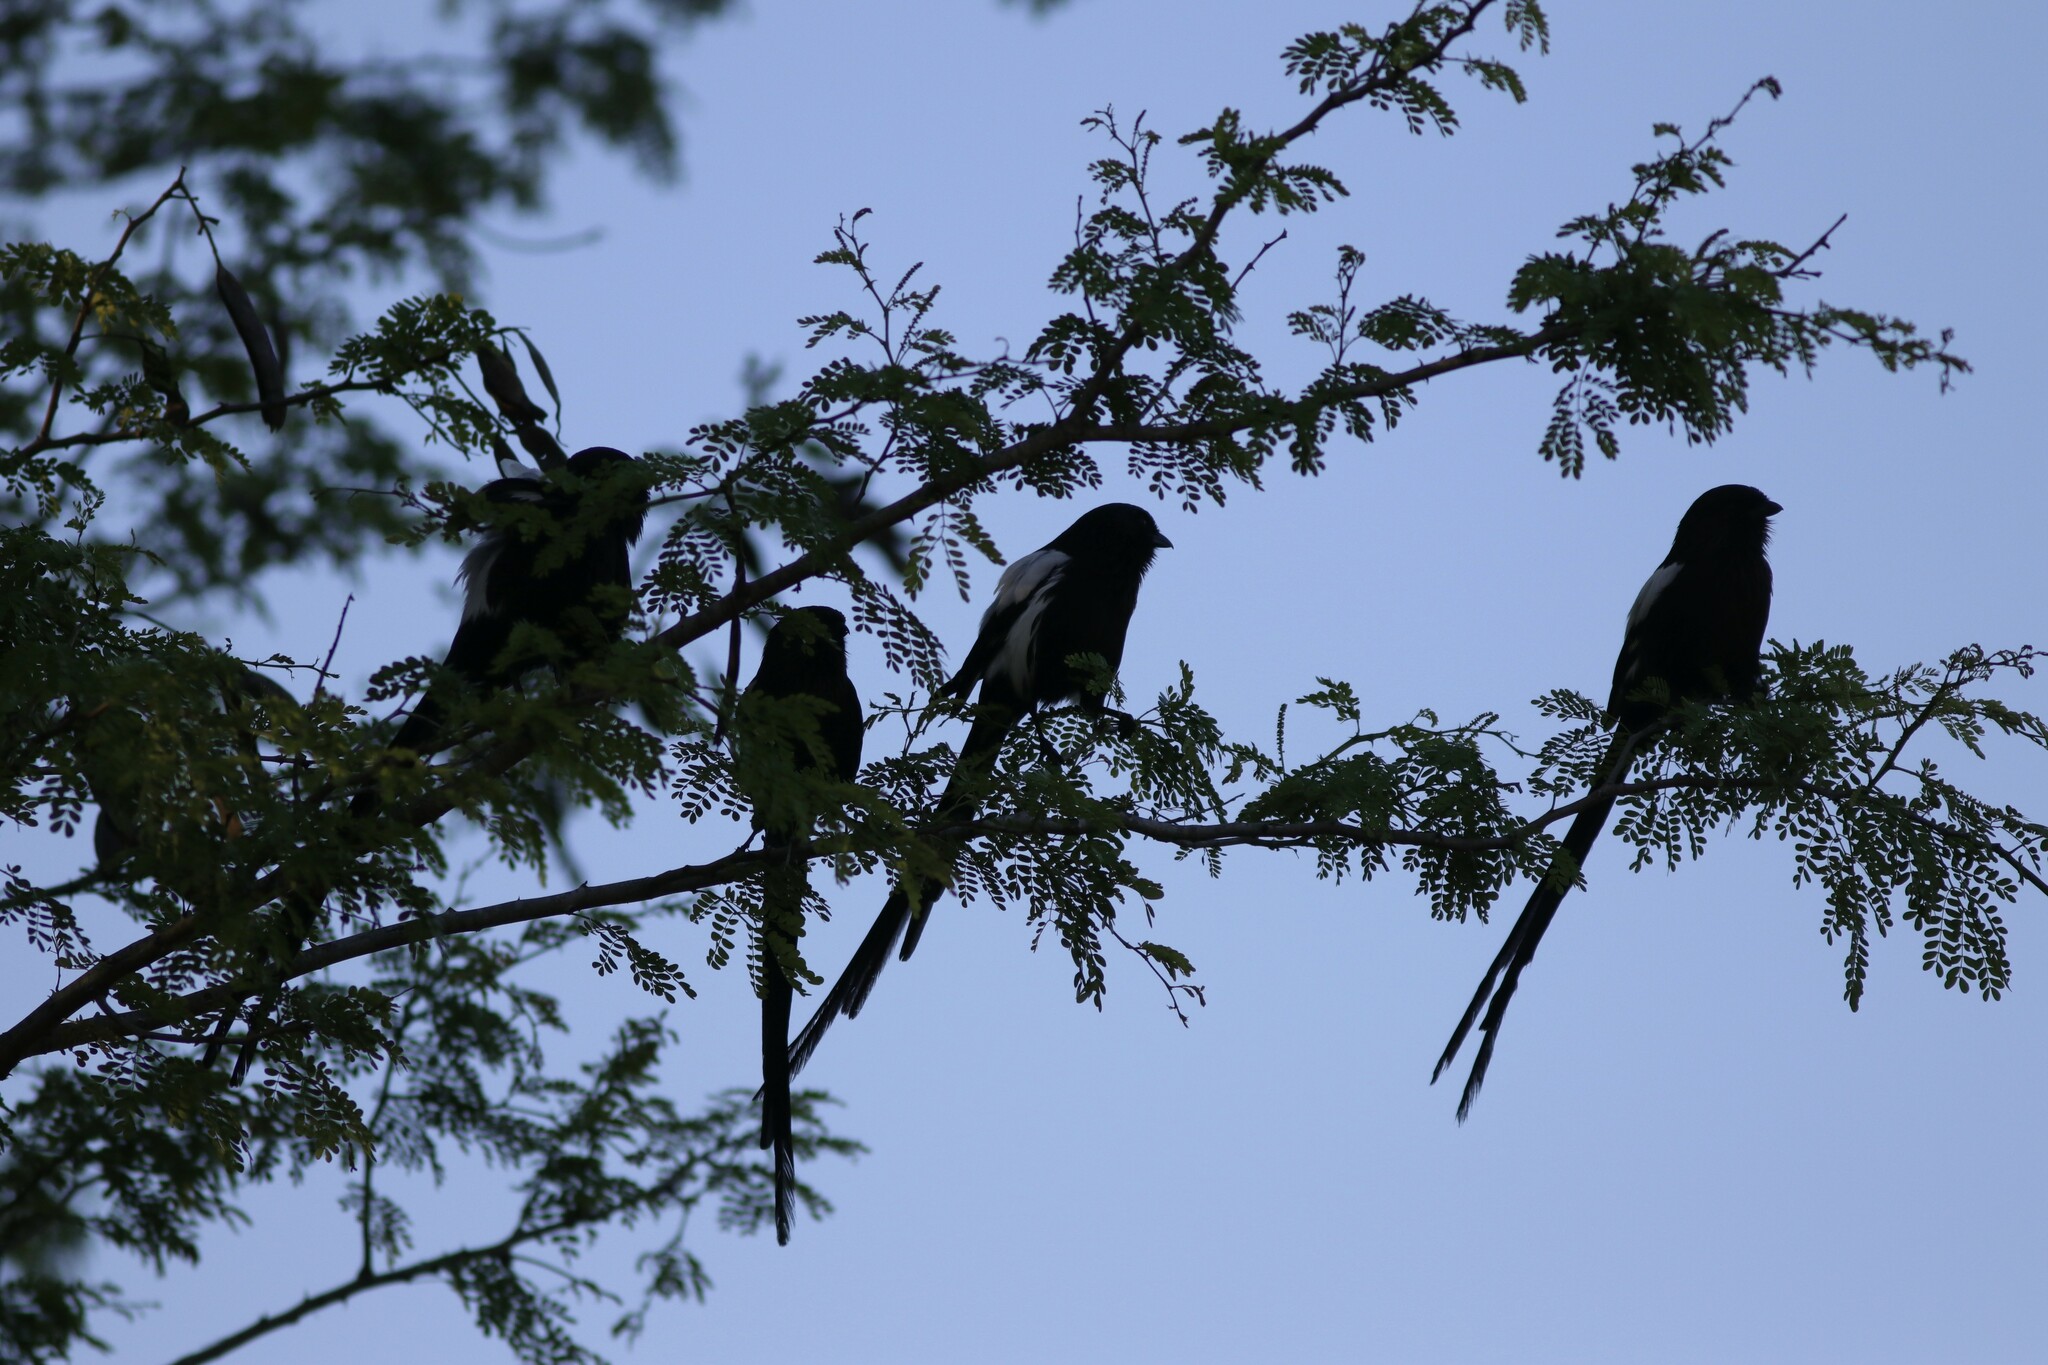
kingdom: Animalia
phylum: Chordata
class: Aves
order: Passeriformes
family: Laniidae
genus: Urolestes
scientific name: Urolestes melanoleucus
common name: Magpie shrike
